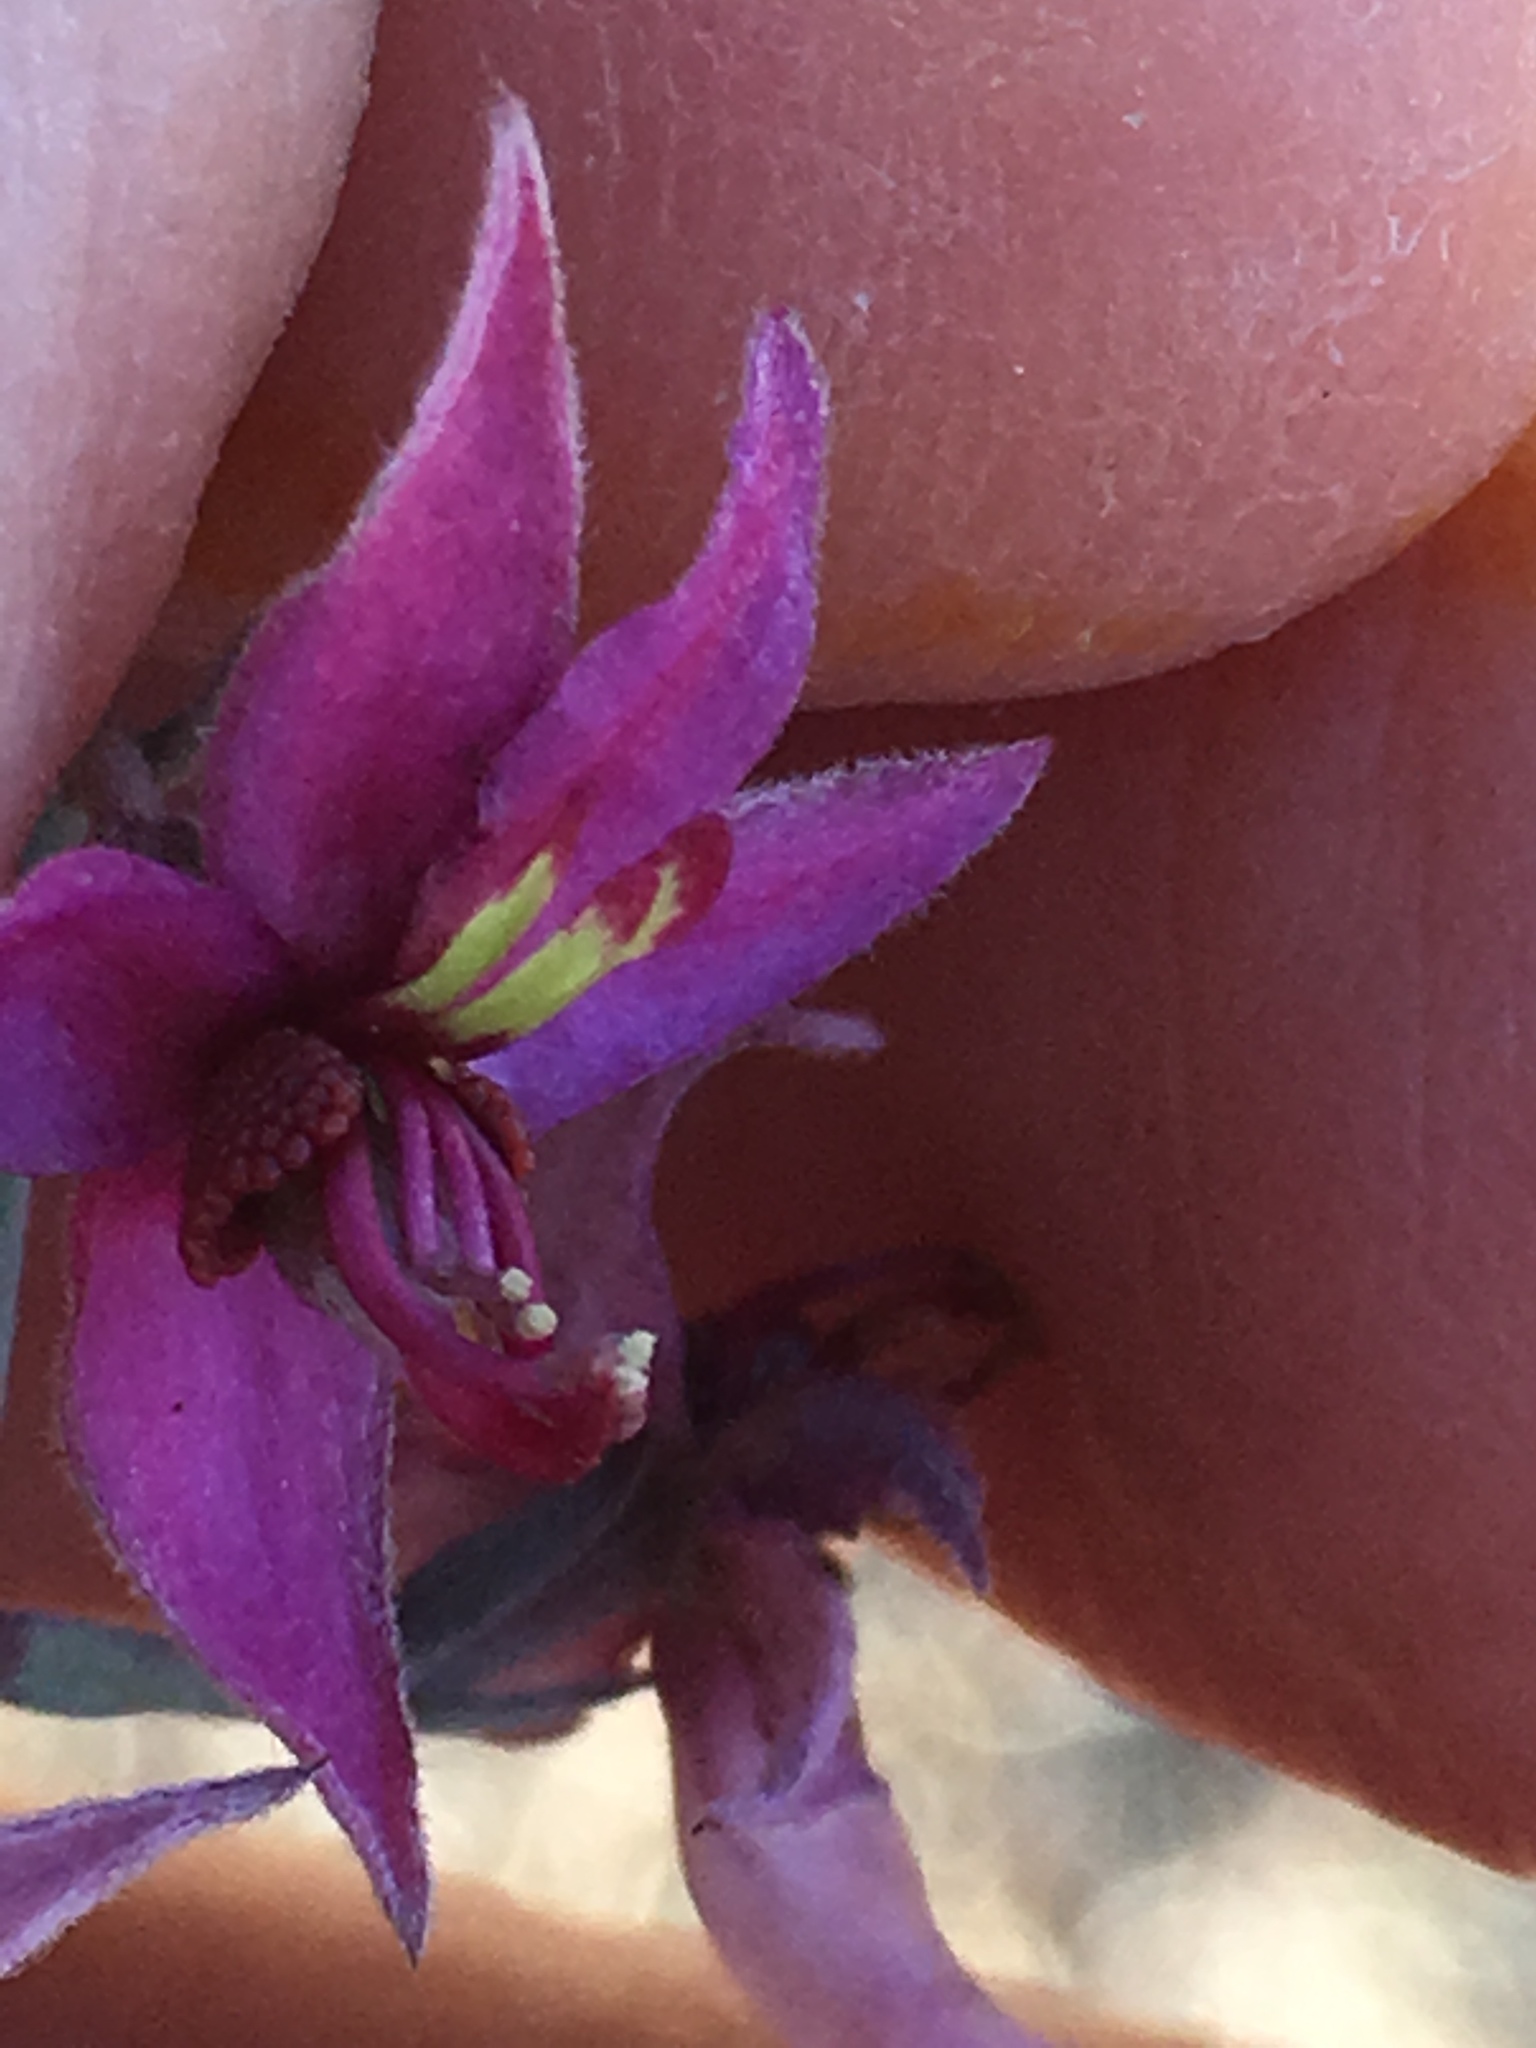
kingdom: Plantae
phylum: Tracheophyta
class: Magnoliopsida
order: Zygophyllales
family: Krameriaceae
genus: Krameria
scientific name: Krameria bicolor
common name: White ratany
